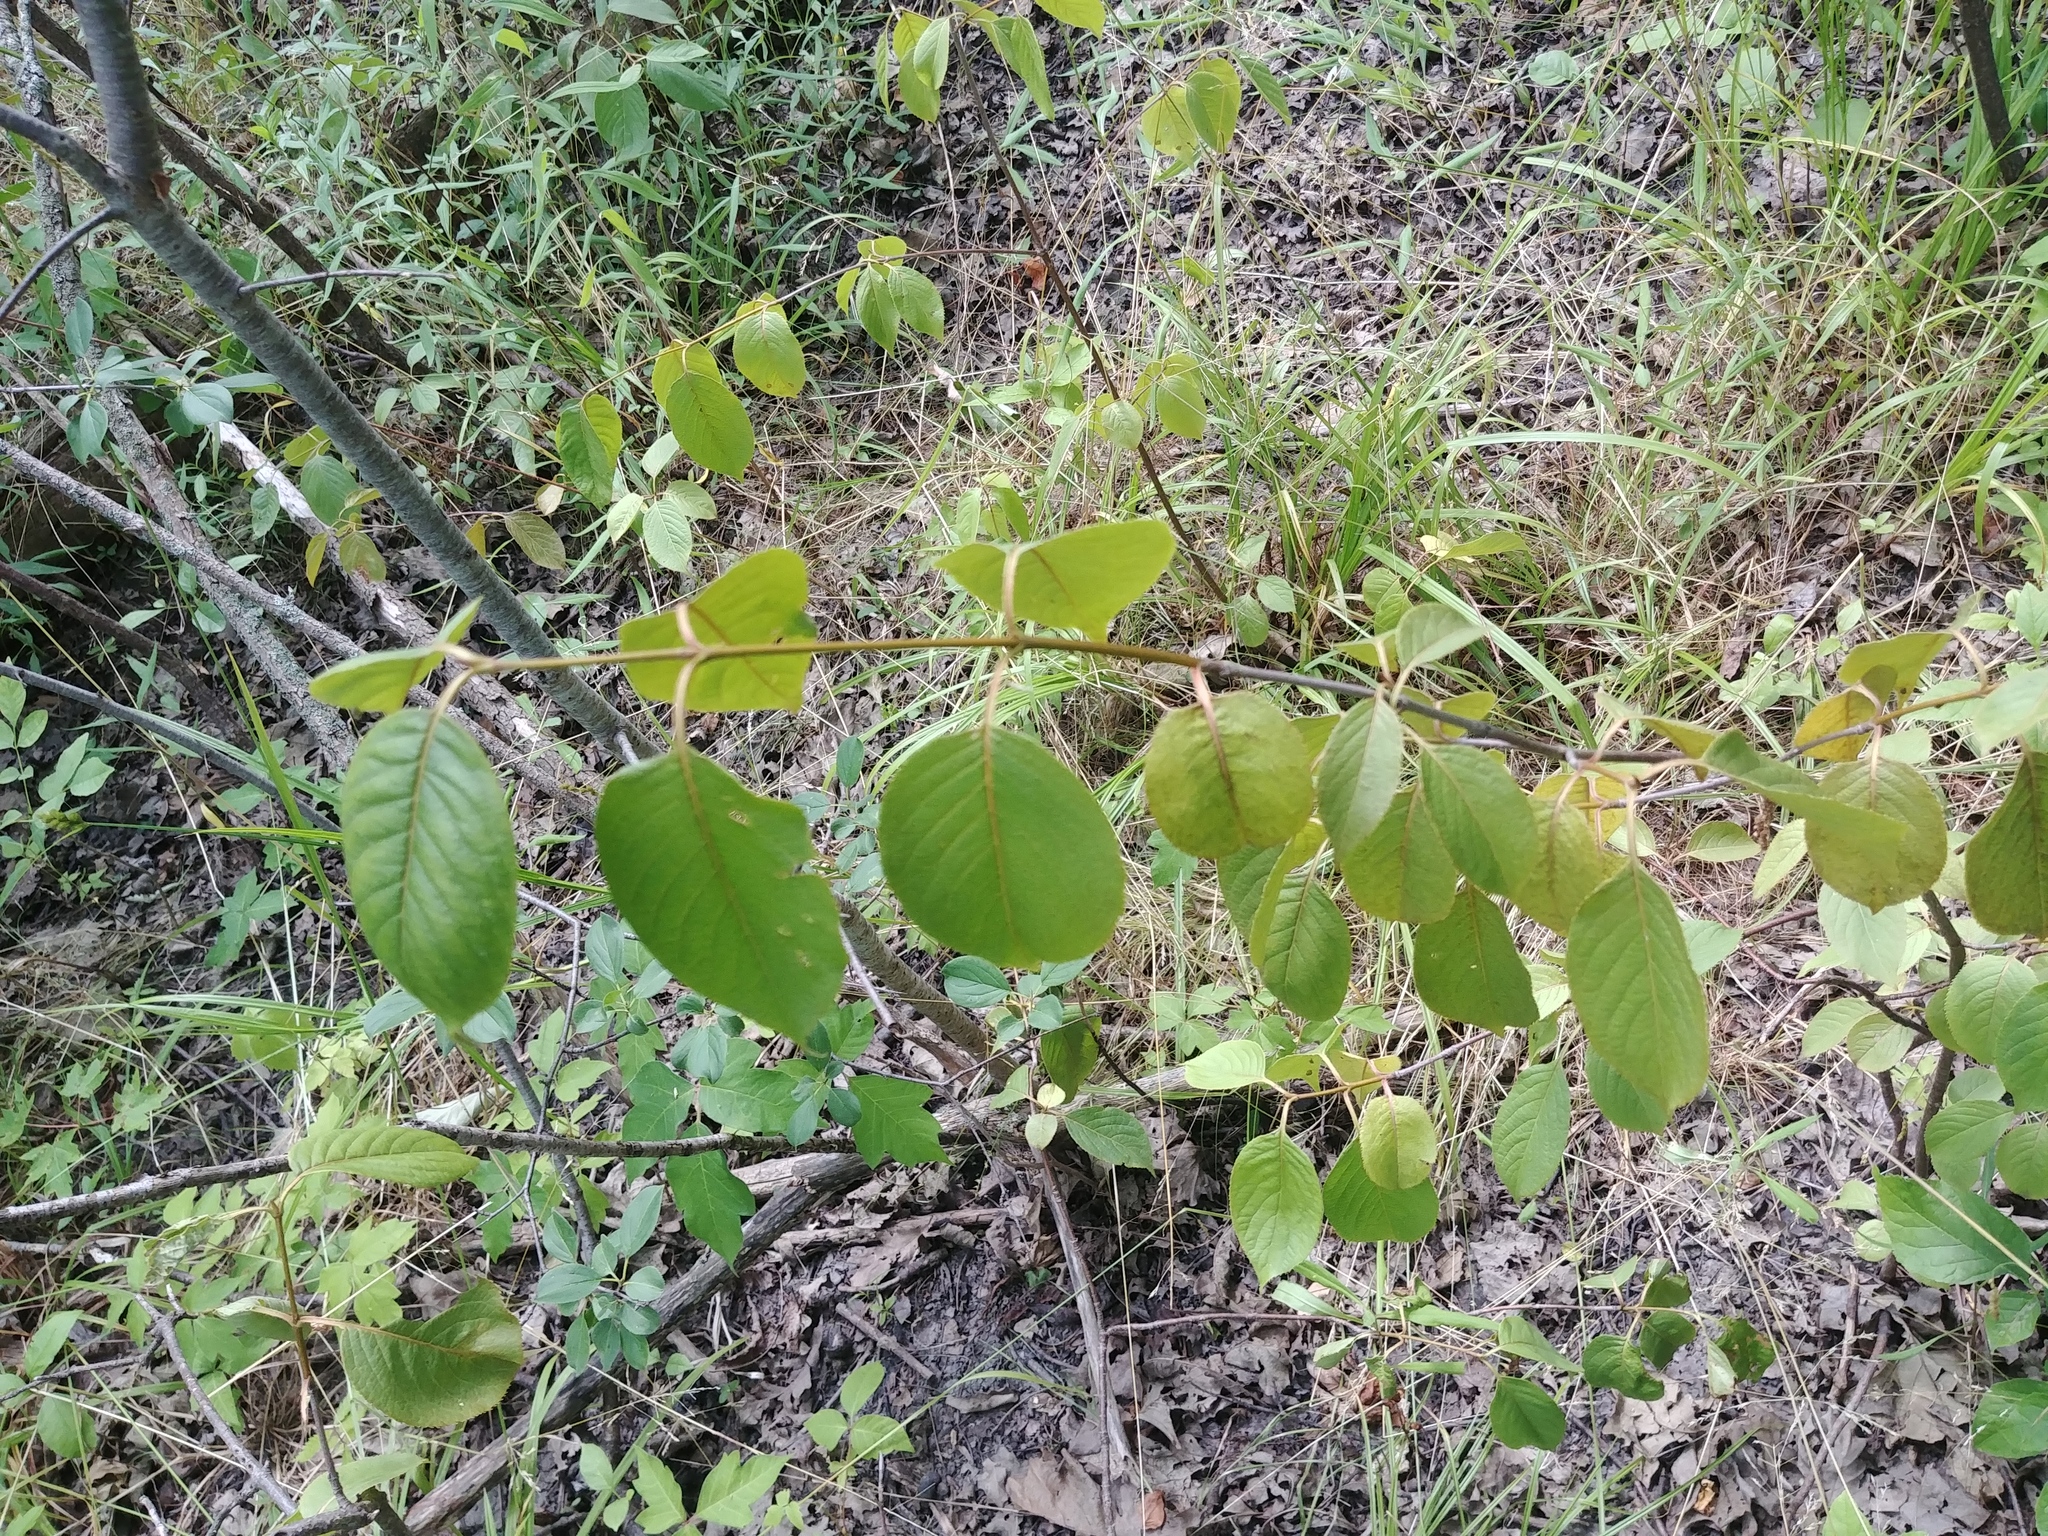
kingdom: Plantae
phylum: Tracheophyta
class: Magnoliopsida
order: Dipsacales
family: Viburnaceae
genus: Viburnum
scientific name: Viburnum lentago
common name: Black haw
